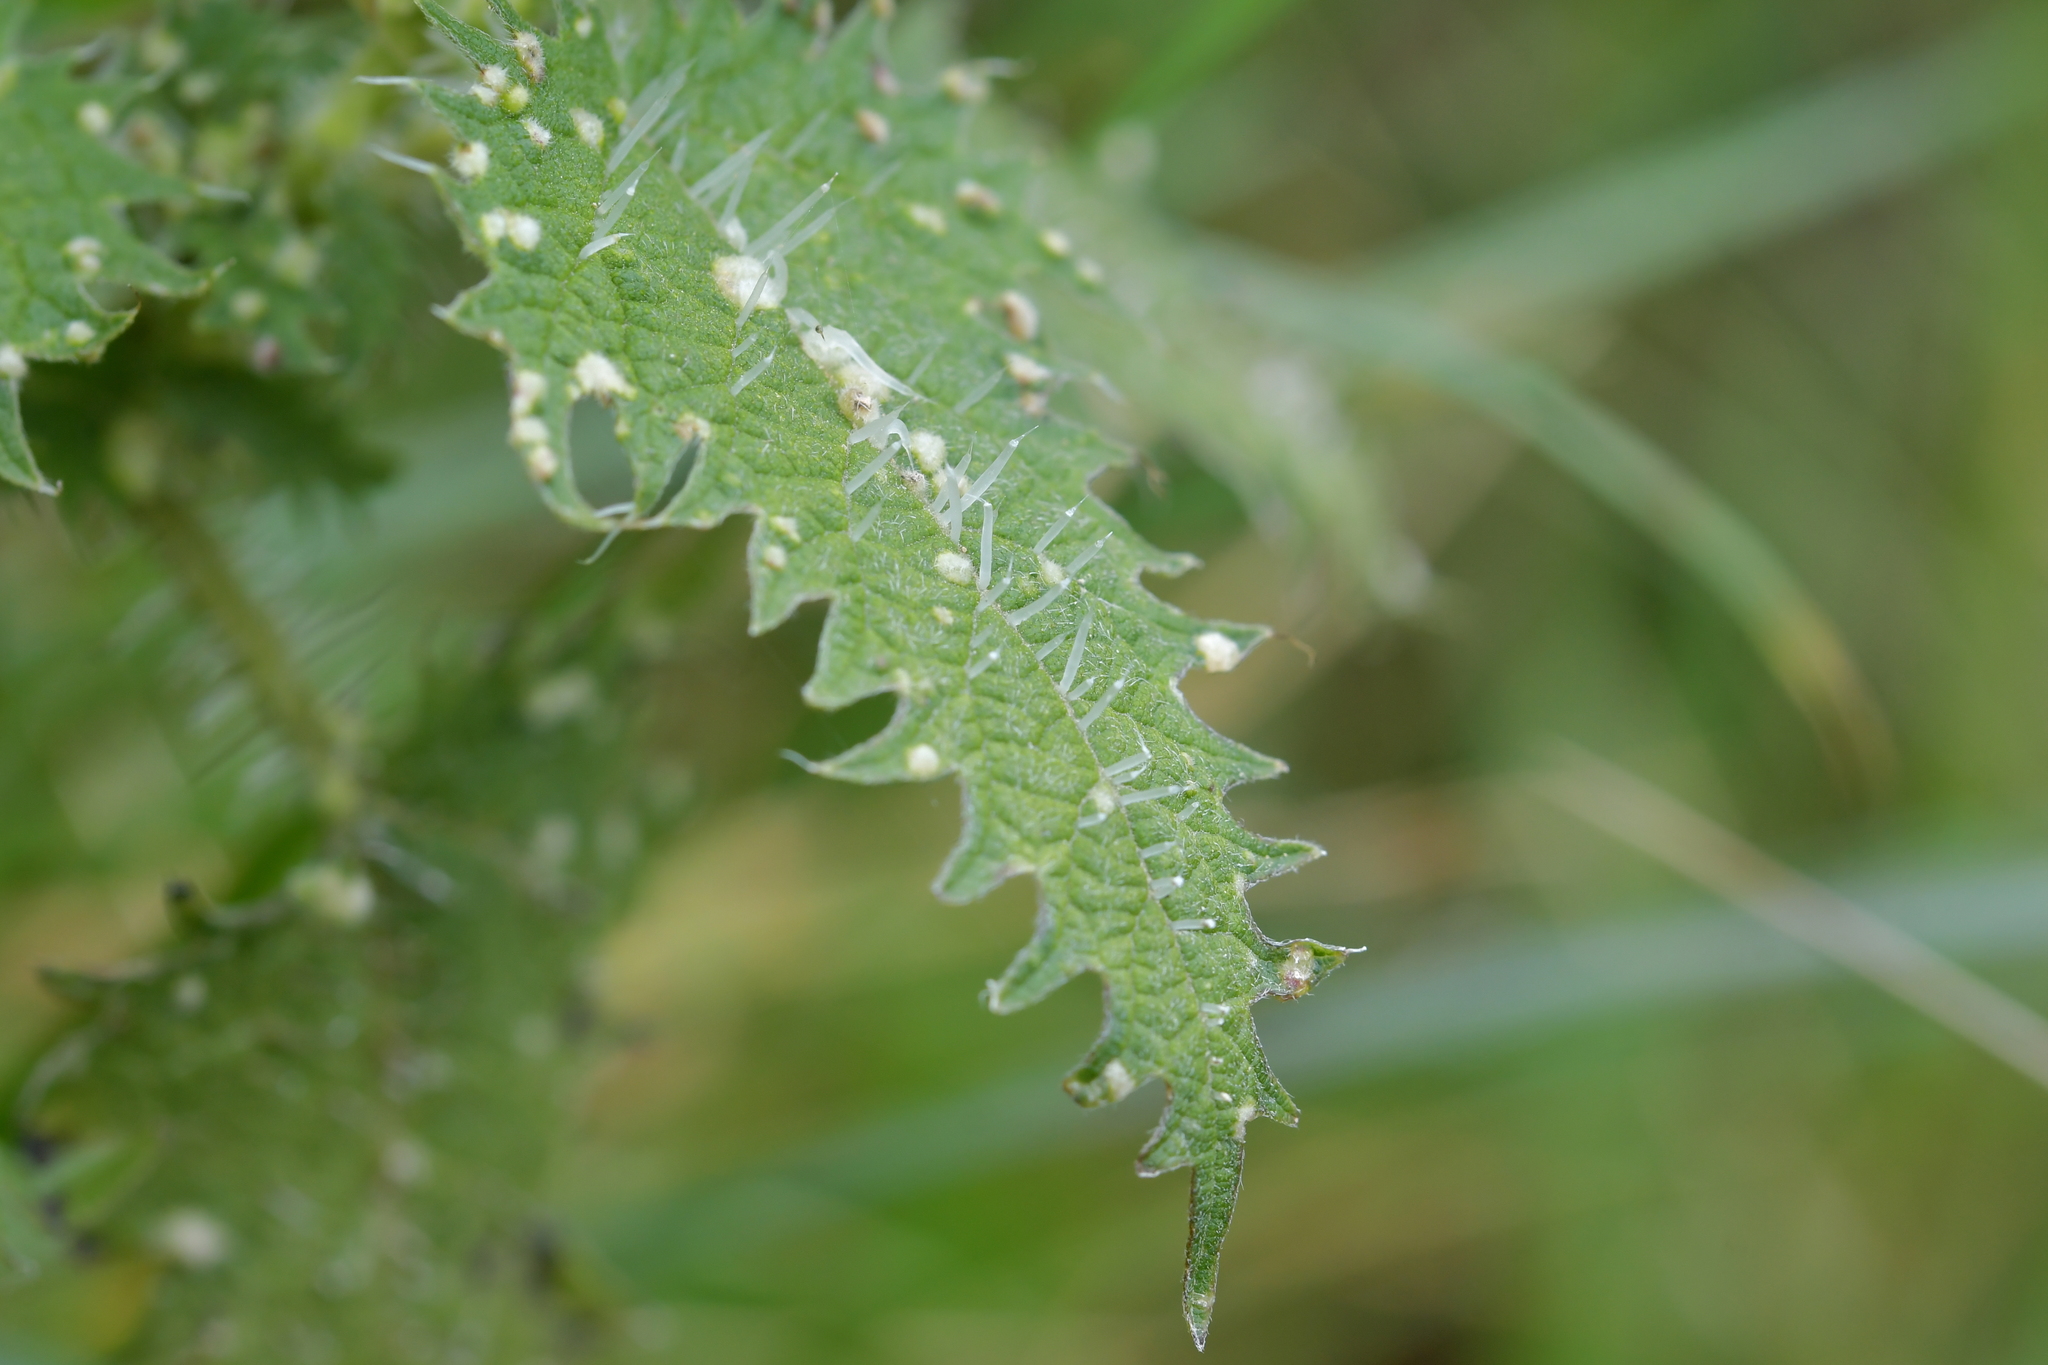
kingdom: Plantae
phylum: Tracheophyta
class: Magnoliopsida
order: Rosales
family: Urticaceae
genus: Urtica
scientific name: Urtica ferox
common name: Tree nettle
